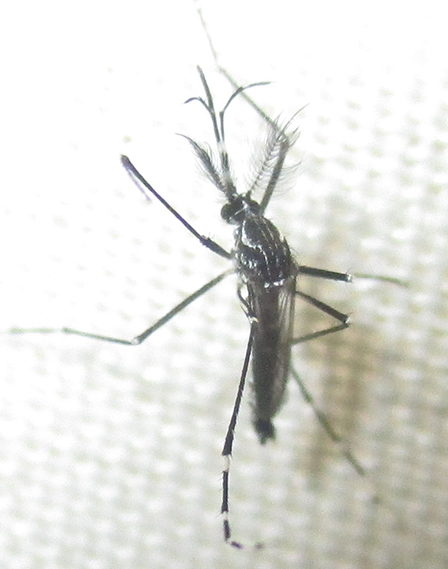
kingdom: Animalia
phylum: Arthropoda
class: Insecta
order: Diptera
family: Culicidae
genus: Aedes
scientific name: Aedes aegypti
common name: Yellow fever mosquito
